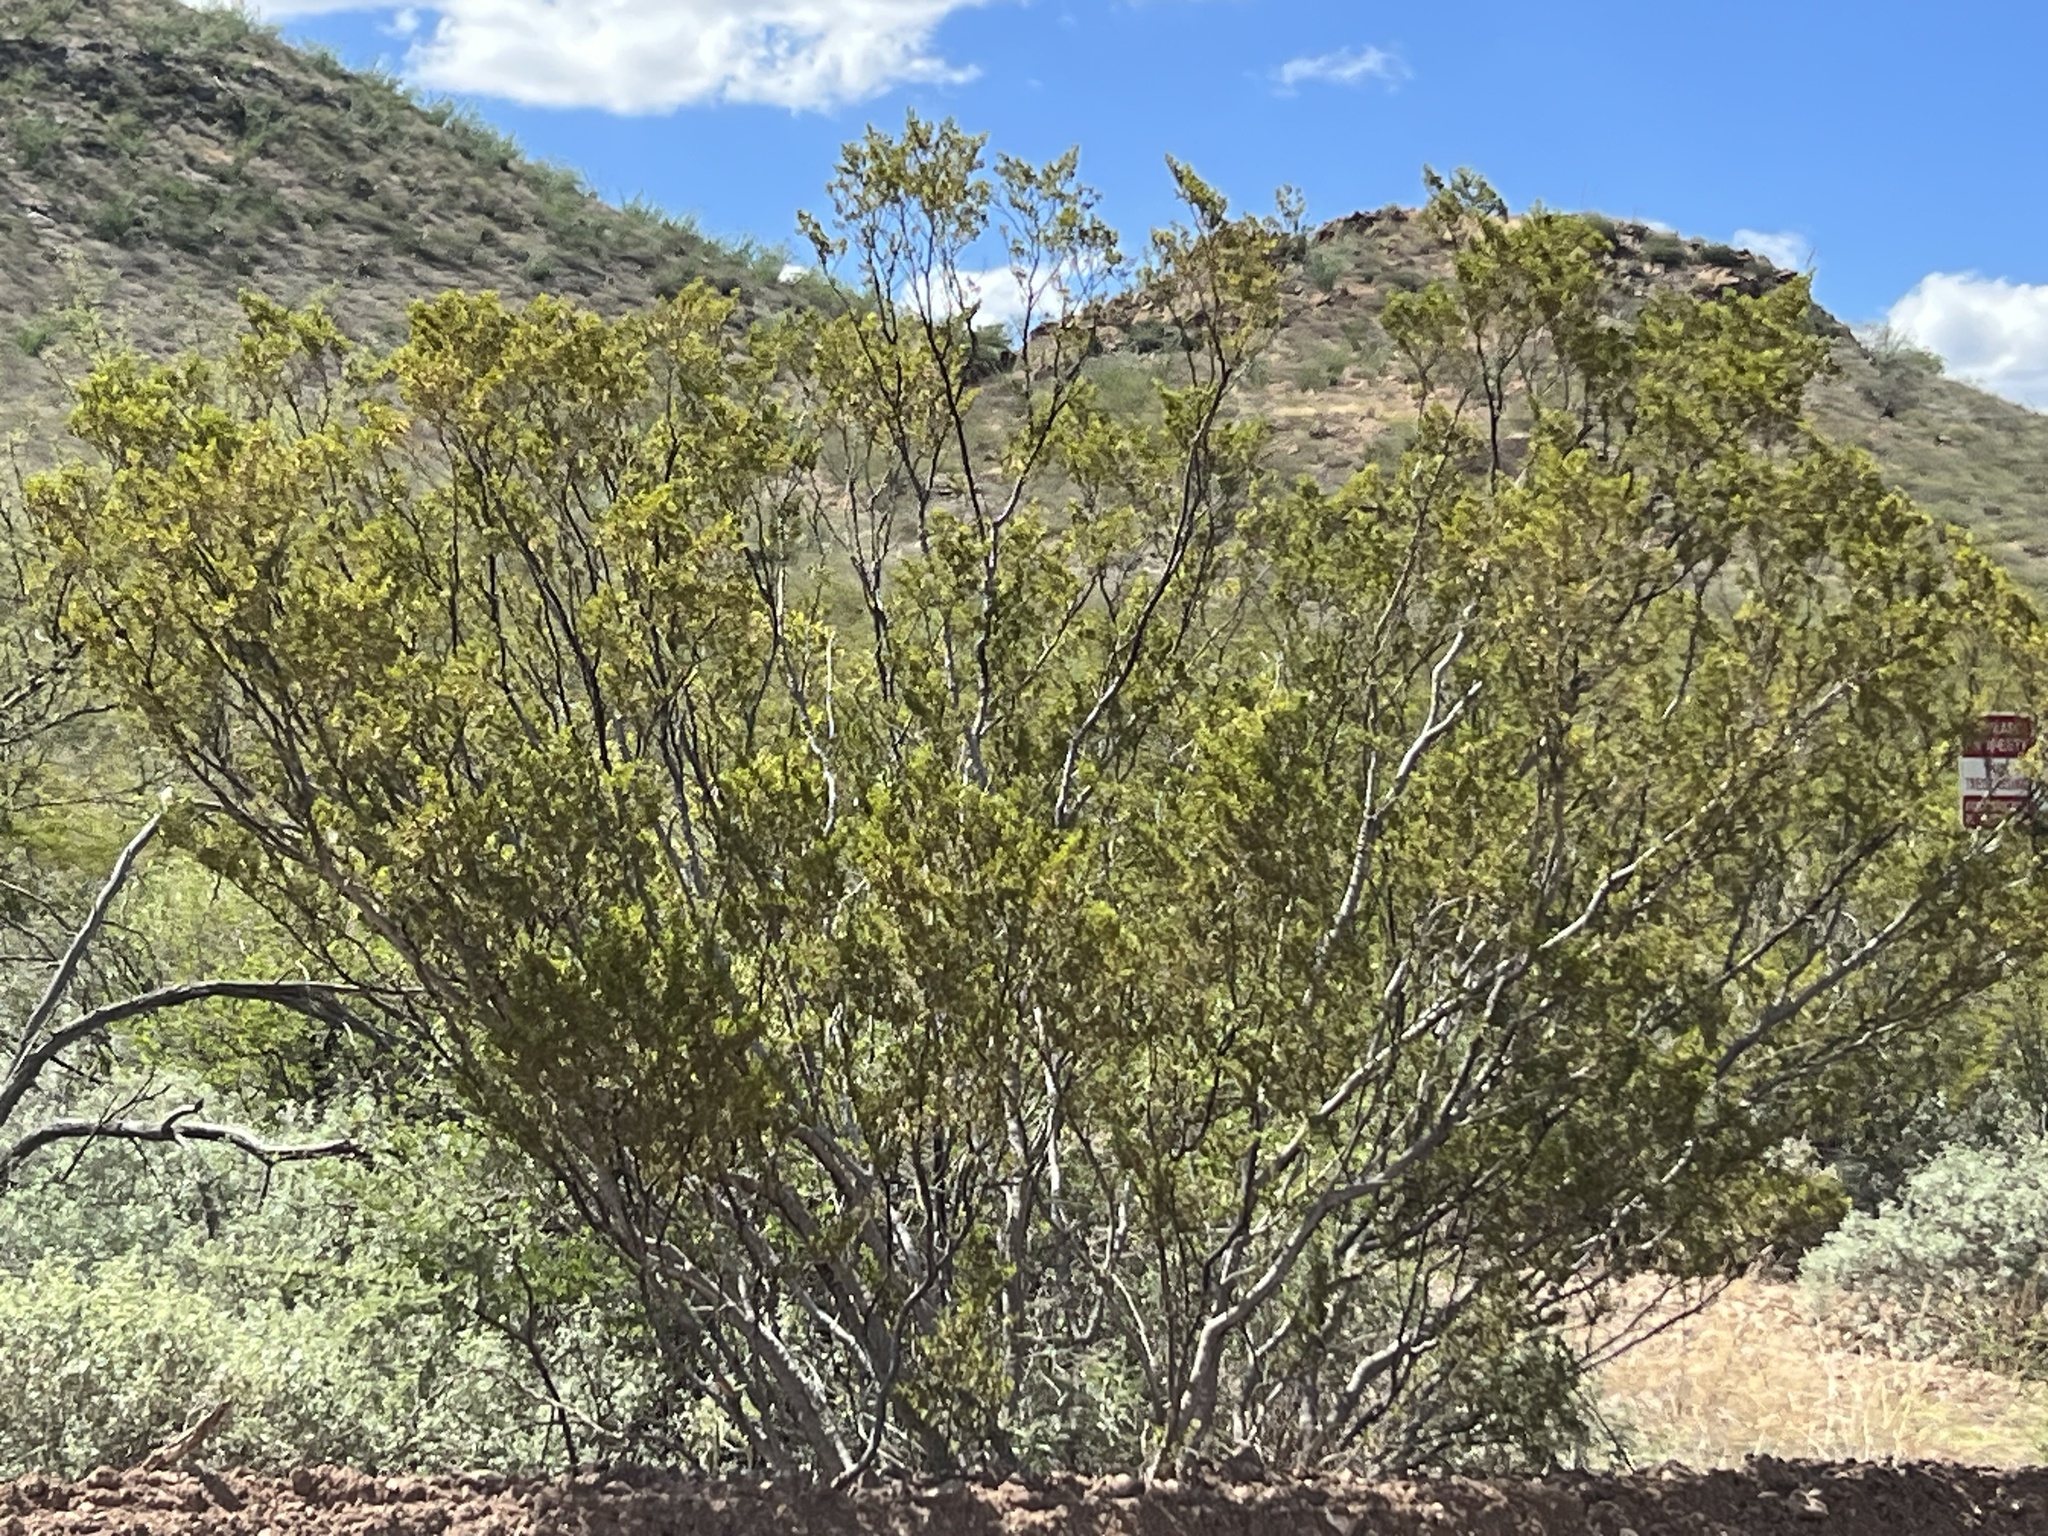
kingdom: Plantae
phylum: Tracheophyta
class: Magnoliopsida
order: Zygophyllales
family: Zygophyllaceae
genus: Larrea
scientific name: Larrea tridentata
